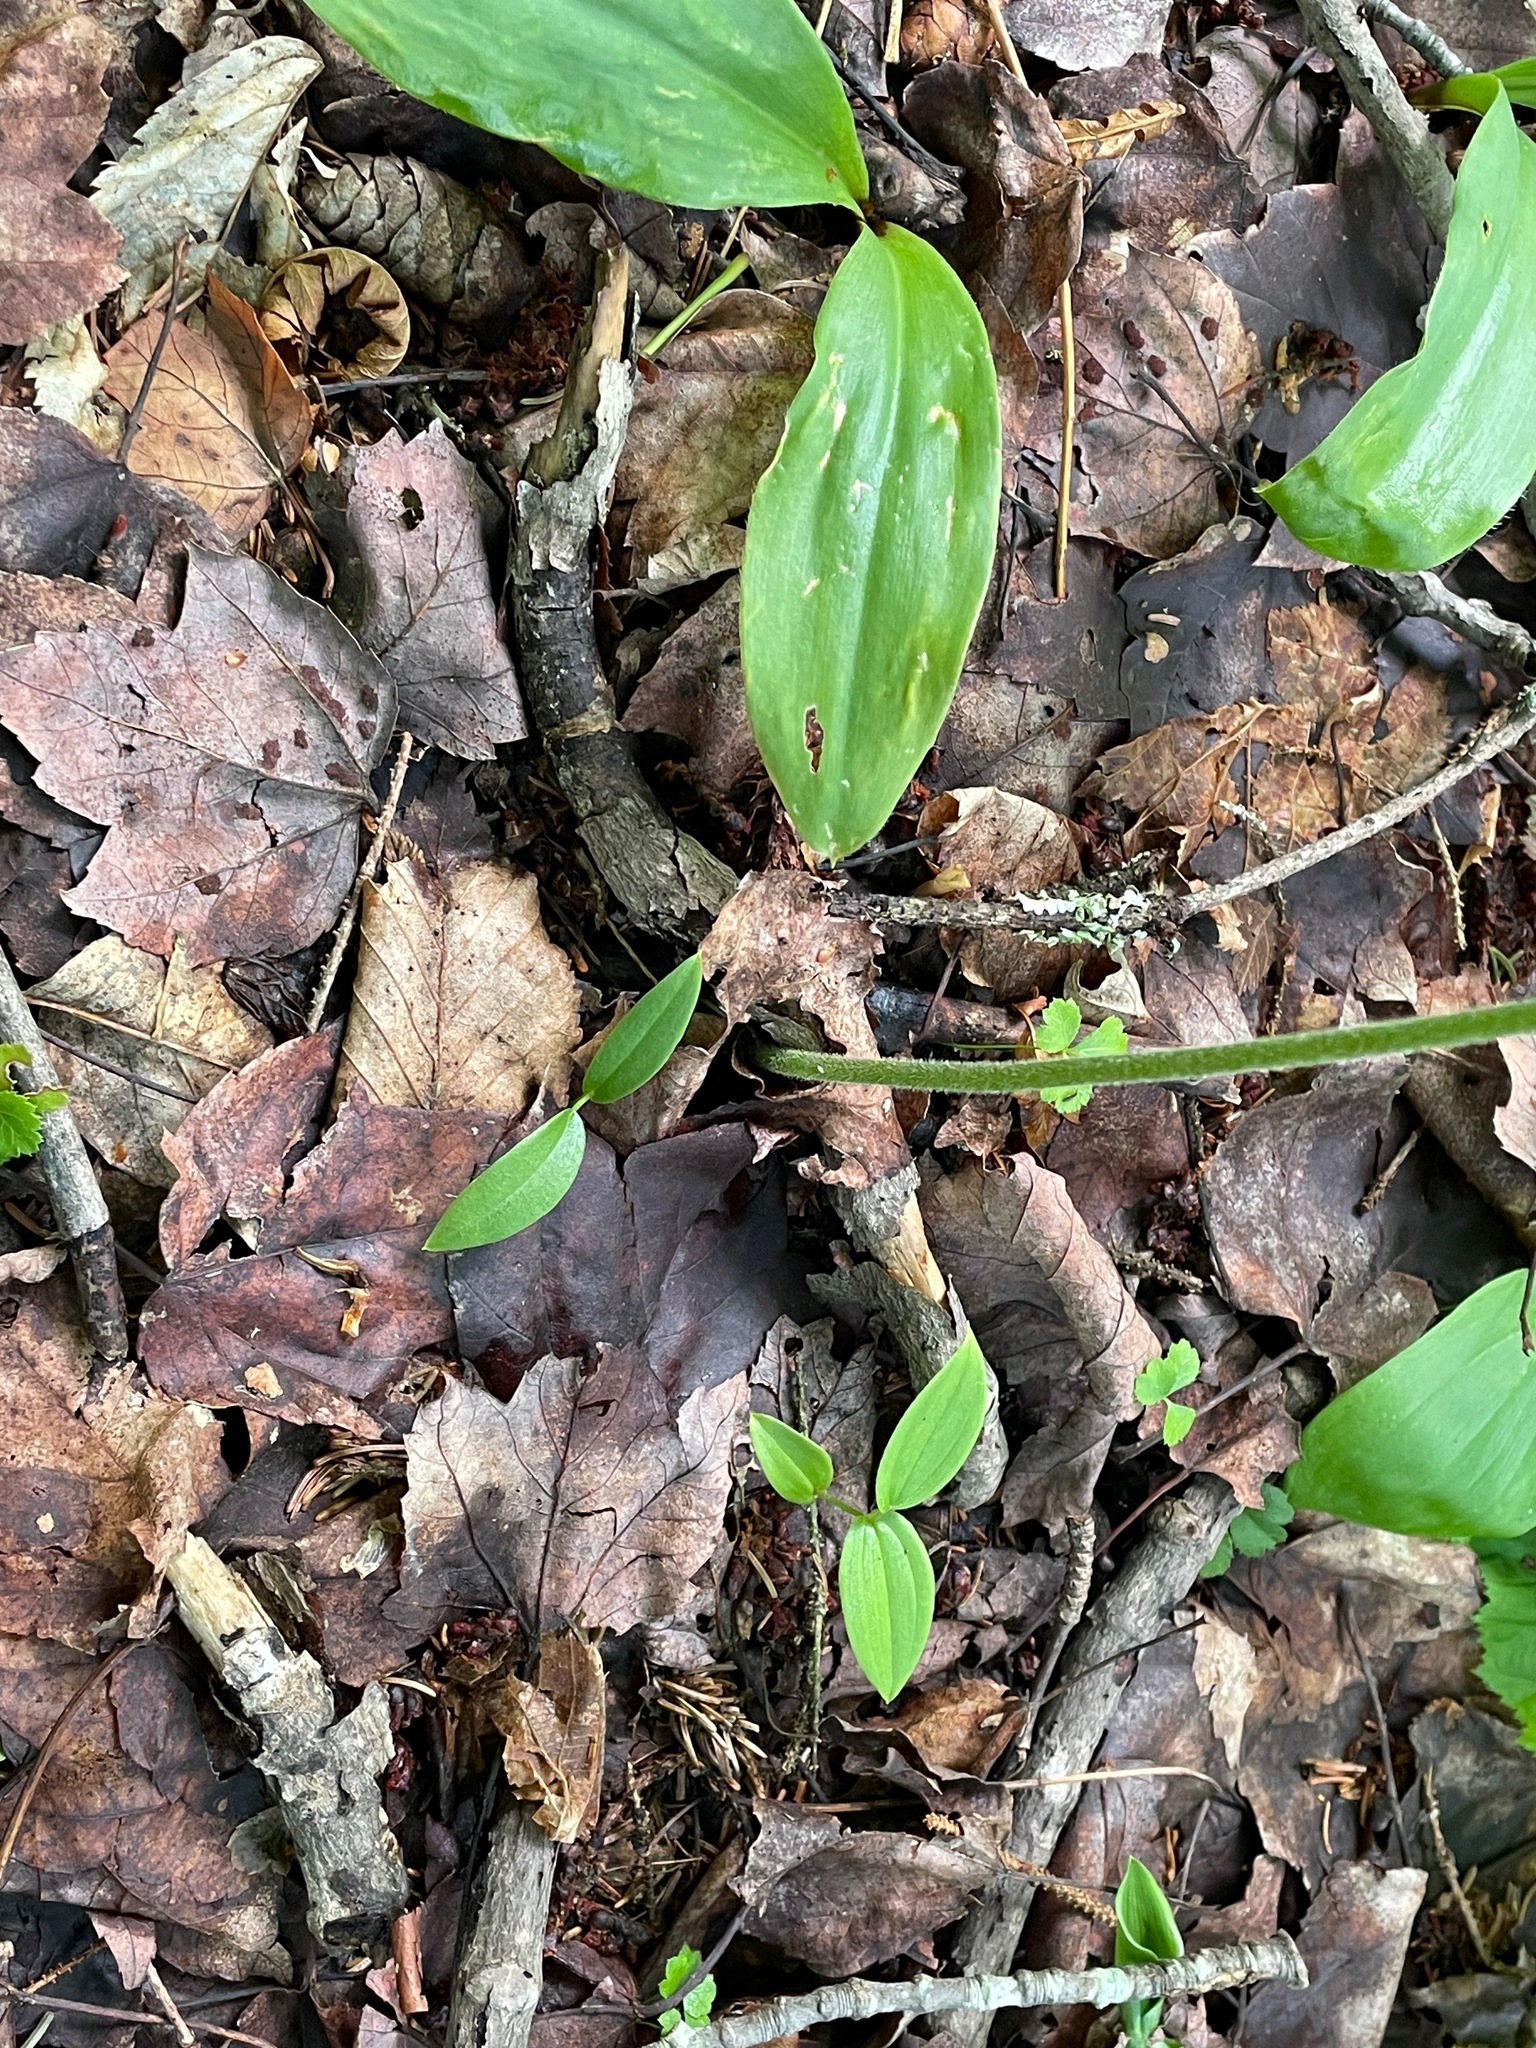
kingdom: Plantae
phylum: Tracheophyta
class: Liliopsida
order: Asparagales
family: Orchidaceae
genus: Cypripedium
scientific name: Cypripedium acaule
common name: Pink lady's-slipper
